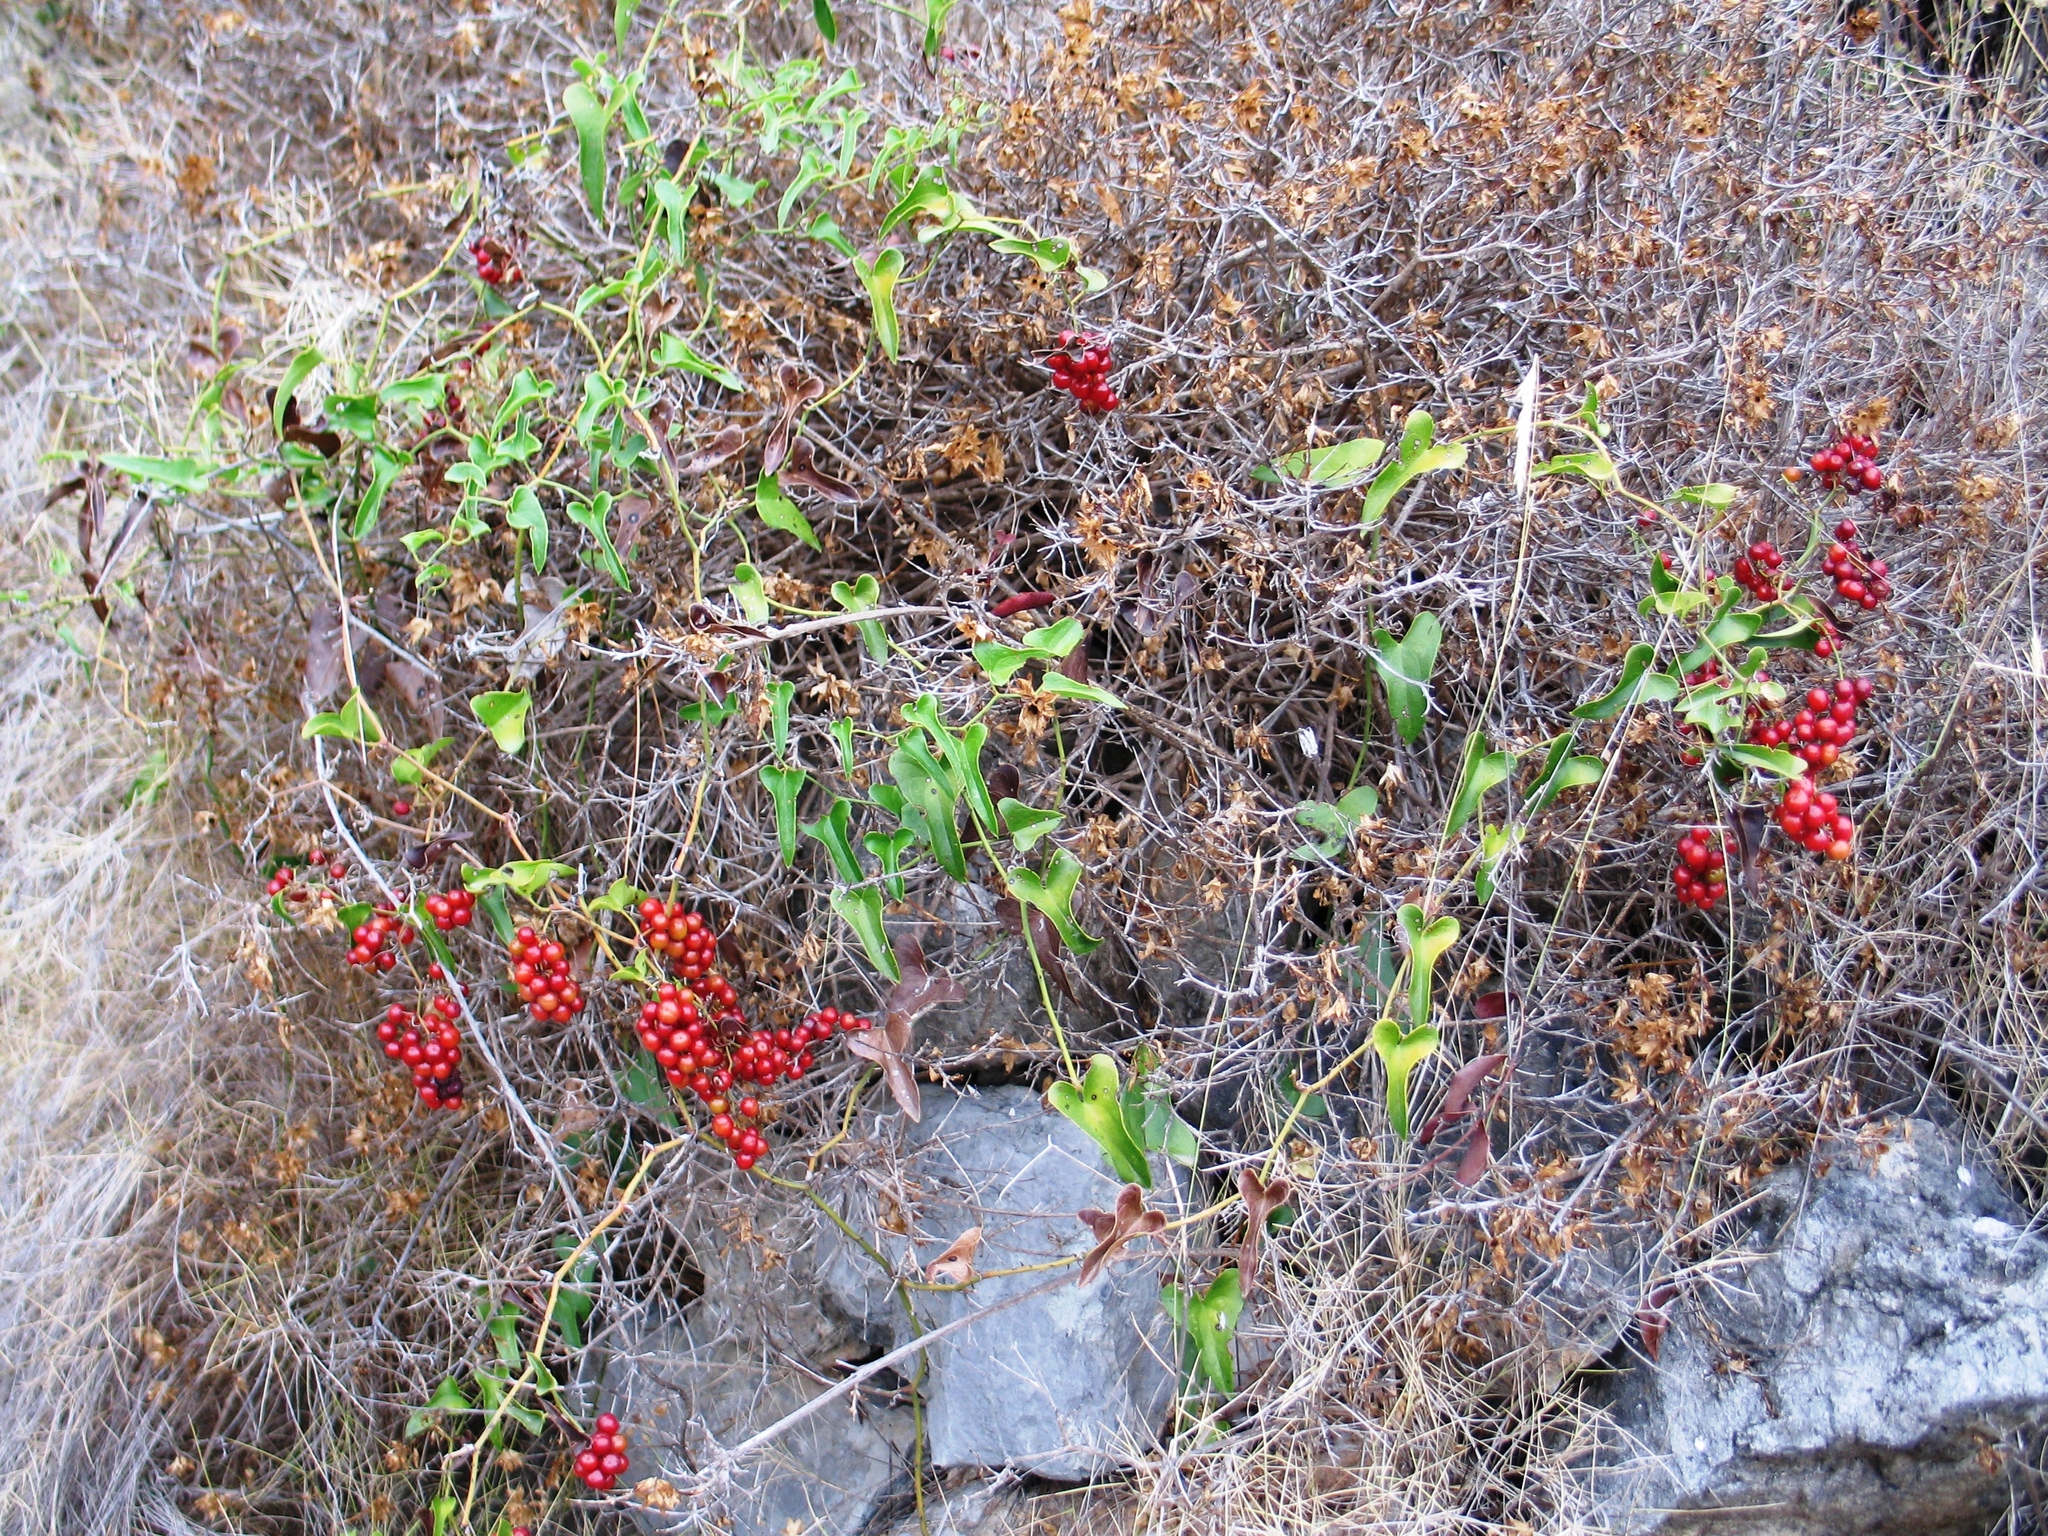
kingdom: Plantae
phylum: Tracheophyta
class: Liliopsida
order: Liliales
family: Smilacaceae
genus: Smilax
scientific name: Smilax aspera
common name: Common smilax
